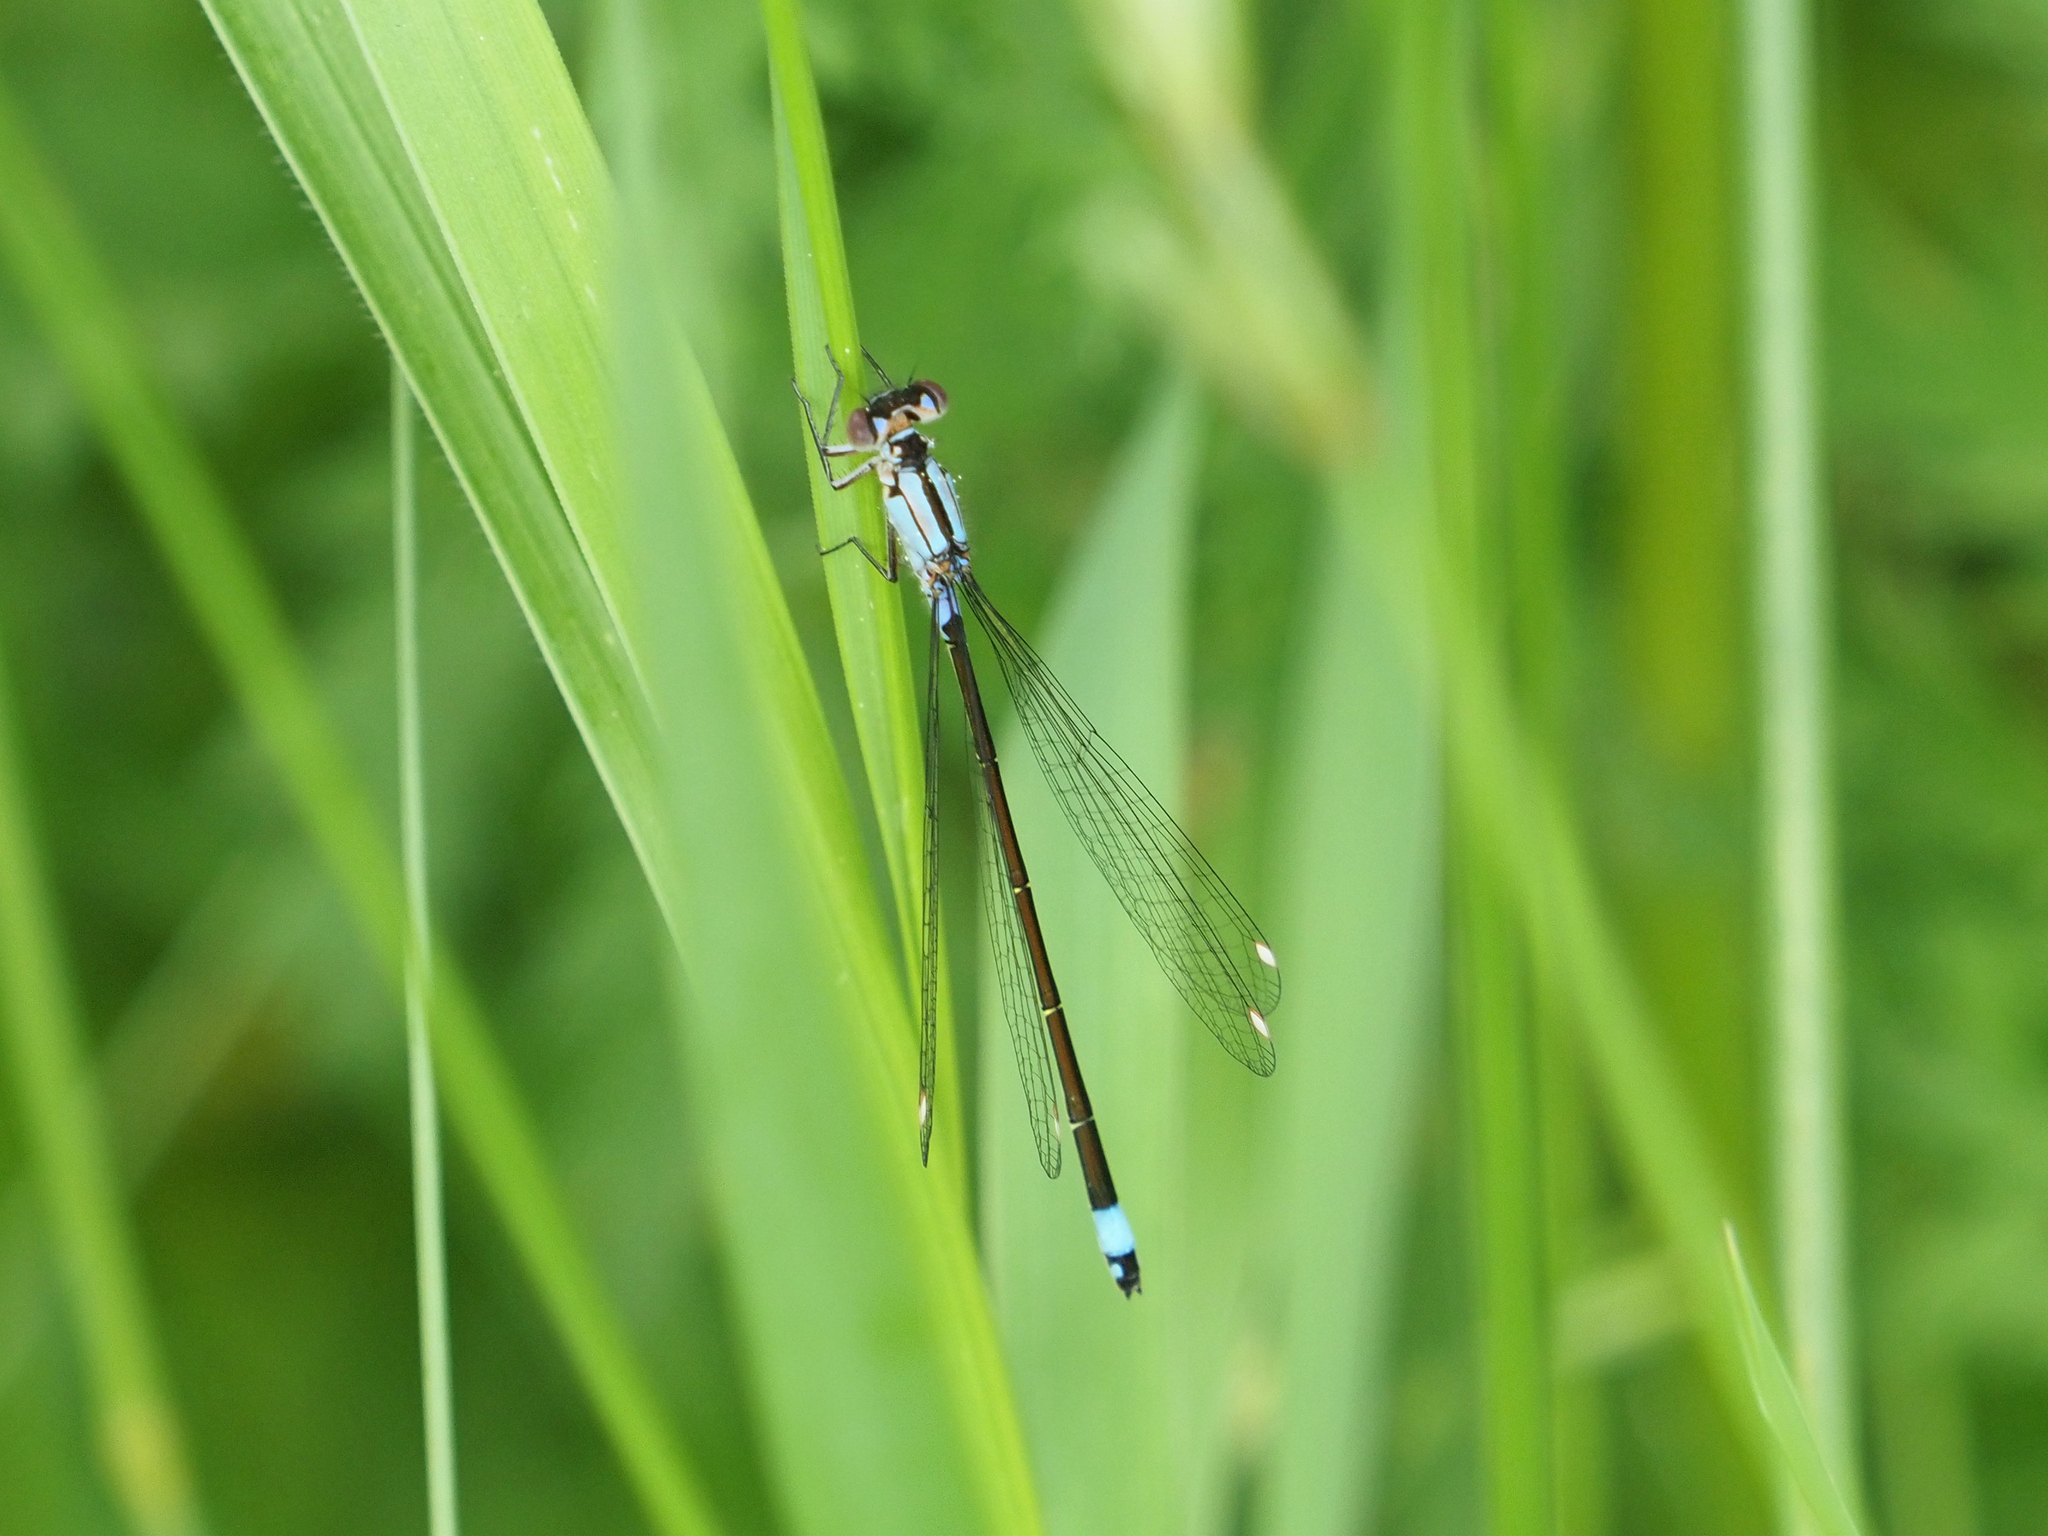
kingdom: Animalia
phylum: Arthropoda
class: Insecta
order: Odonata
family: Coenagrionidae
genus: Ischnura
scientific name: Ischnura cervula
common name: Pacific forktail
